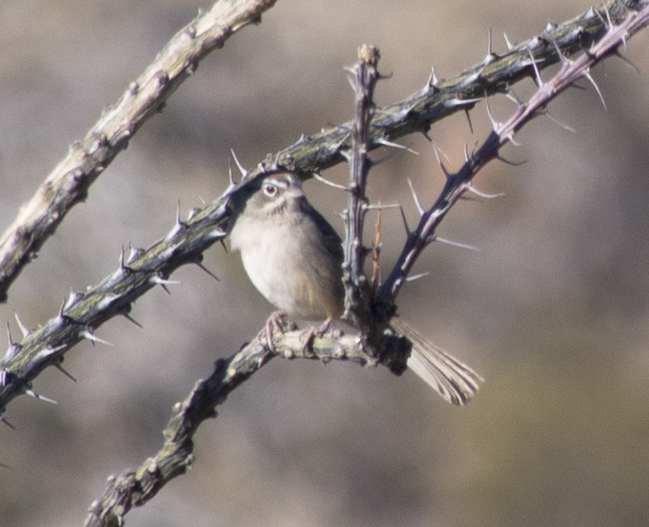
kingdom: Animalia
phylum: Chordata
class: Aves
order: Passeriformes
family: Passerellidae
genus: Aimophila
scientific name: Aimophila ruficeps
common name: Rufous-crowned sparrow
